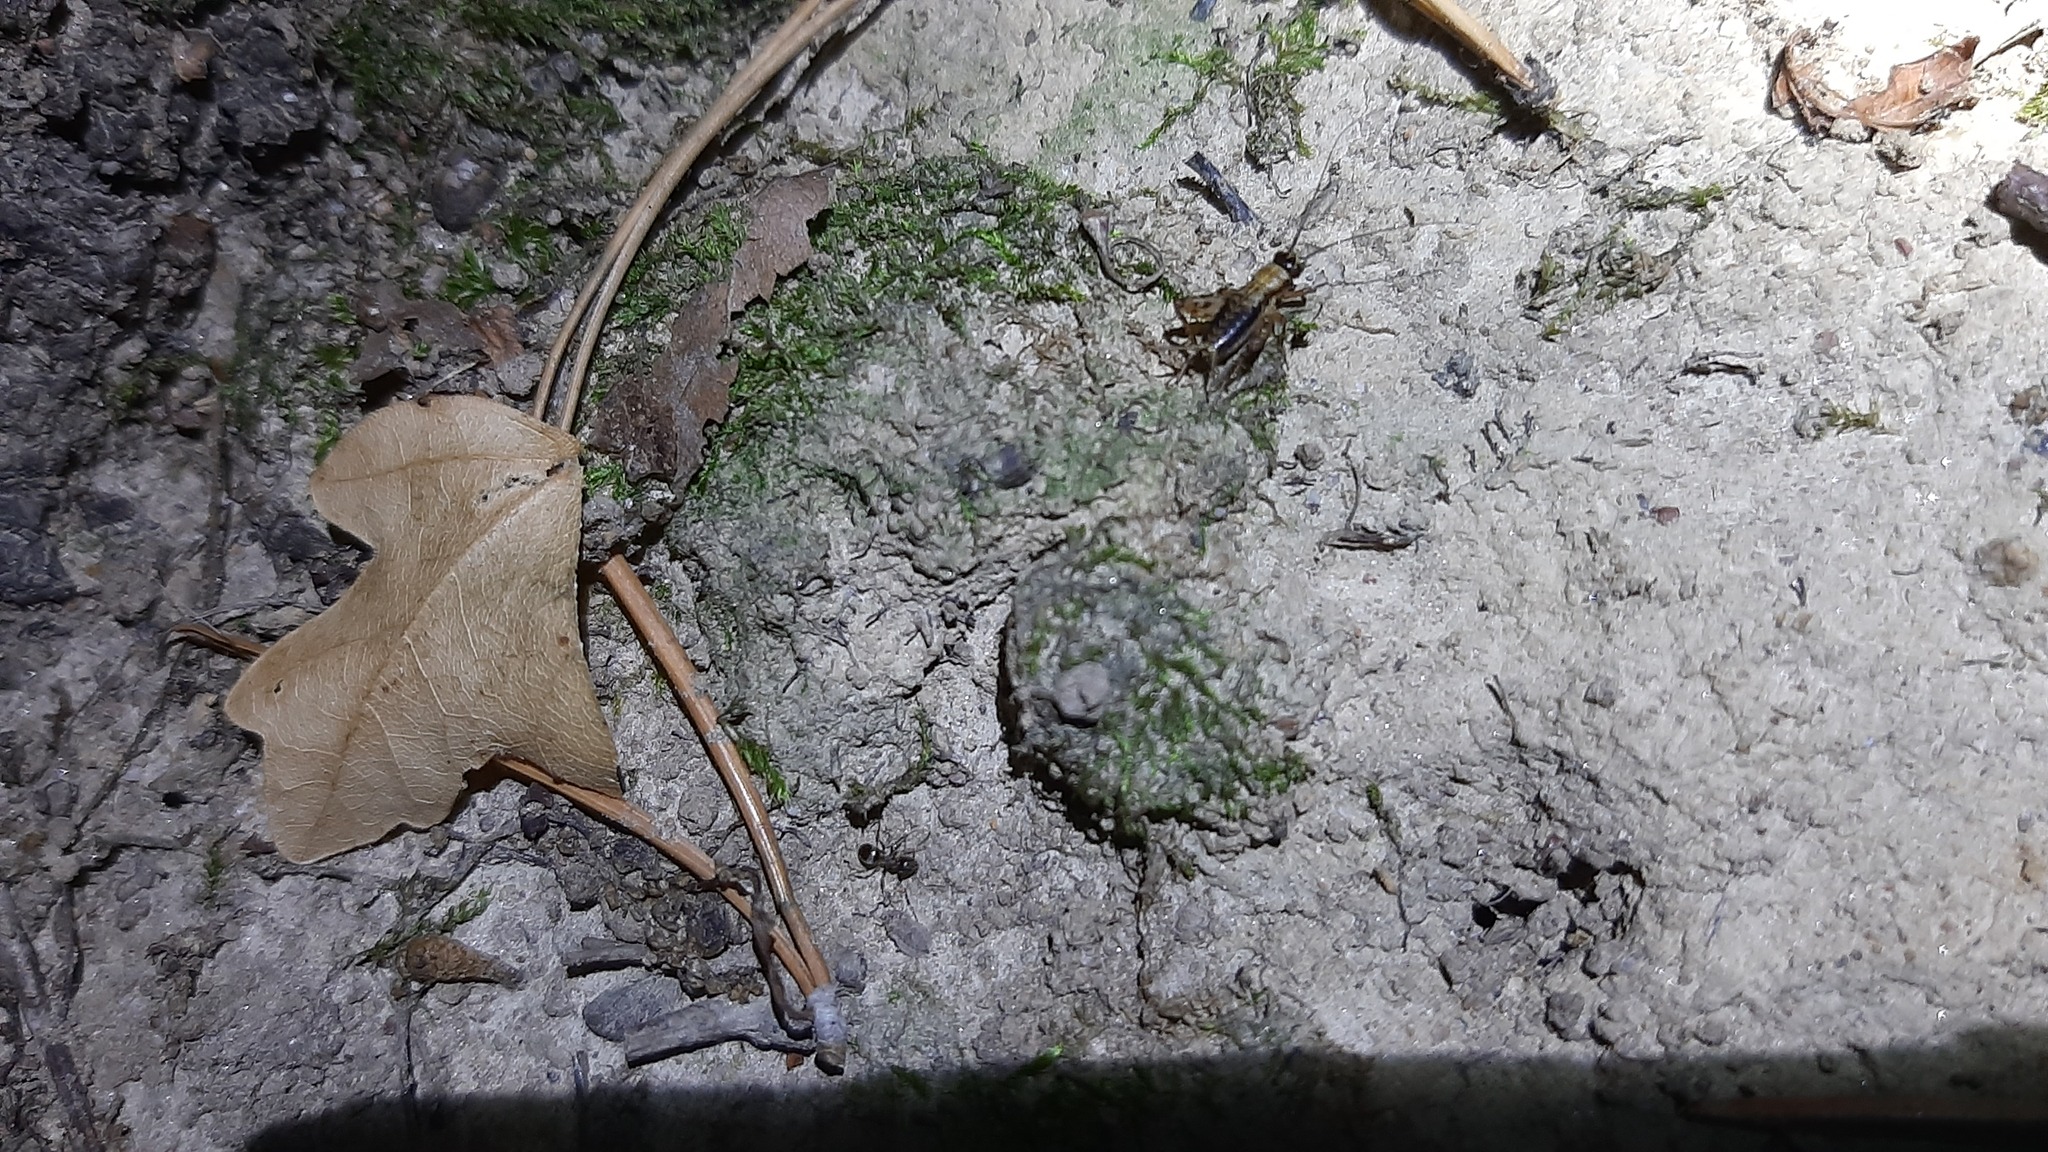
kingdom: Animalia
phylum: Arthropoda
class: Insecta
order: Orthoptera
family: Trigonidiidae
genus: Nemobius
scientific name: Nemobius sylvestris
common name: Wood-cricket
